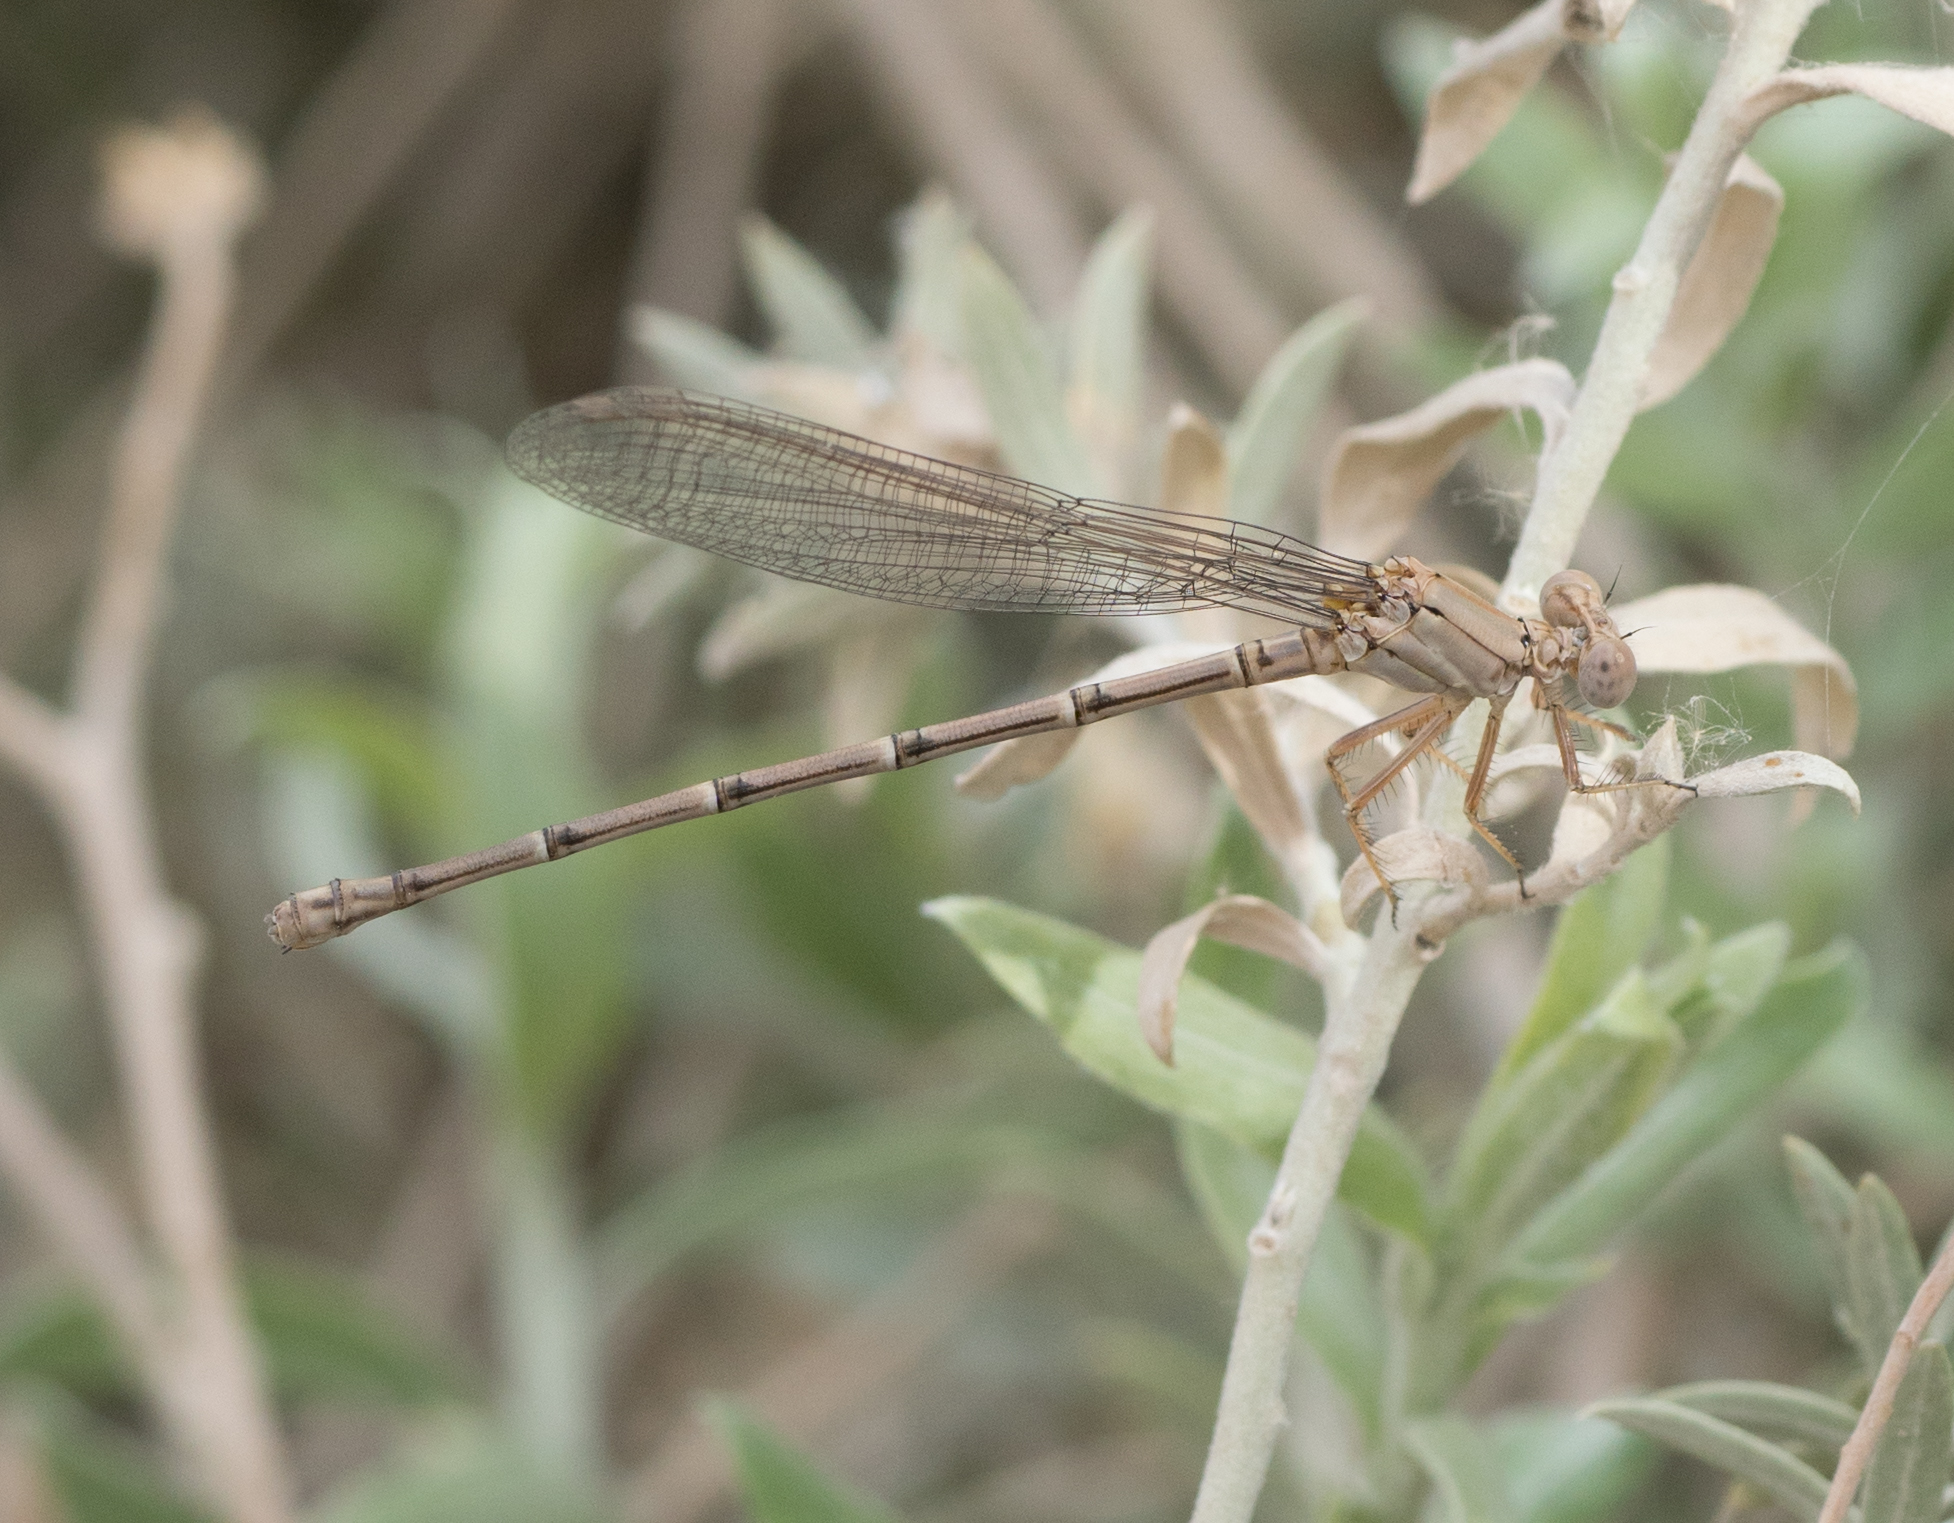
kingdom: Animalia
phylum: Arthropoda
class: Insecta
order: Odonata
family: Coenagrionidae
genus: Argia
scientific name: Argia moesta
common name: Powdered dancer
